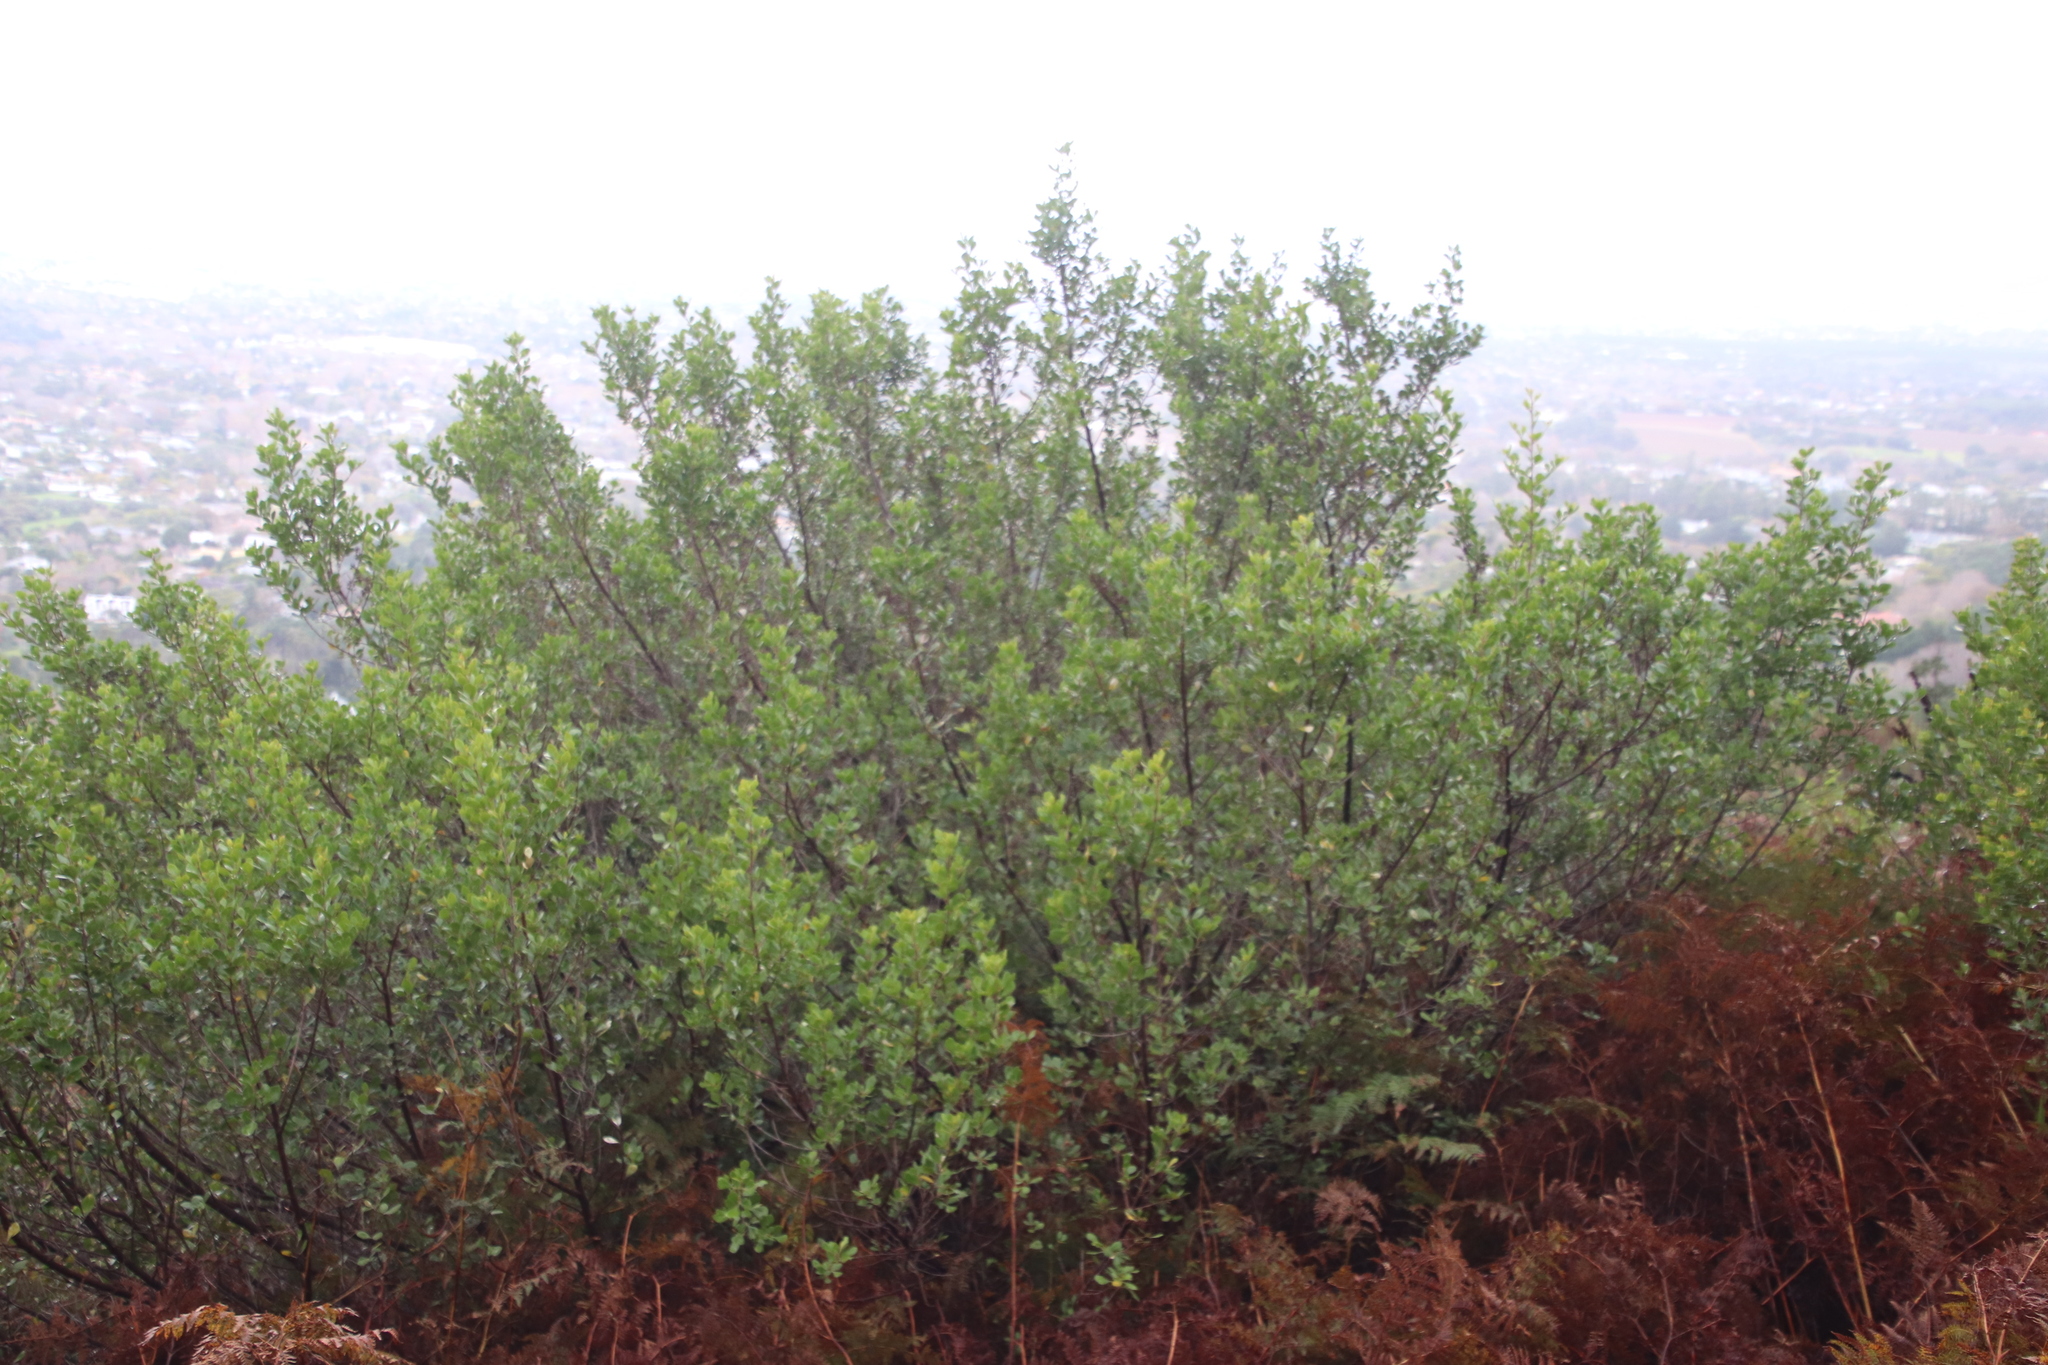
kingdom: Plantae
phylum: Tracheophyta
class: Magnoliopsida
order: Sapindales
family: Anacardiaceae
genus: Searsia
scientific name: Searsia lucida
